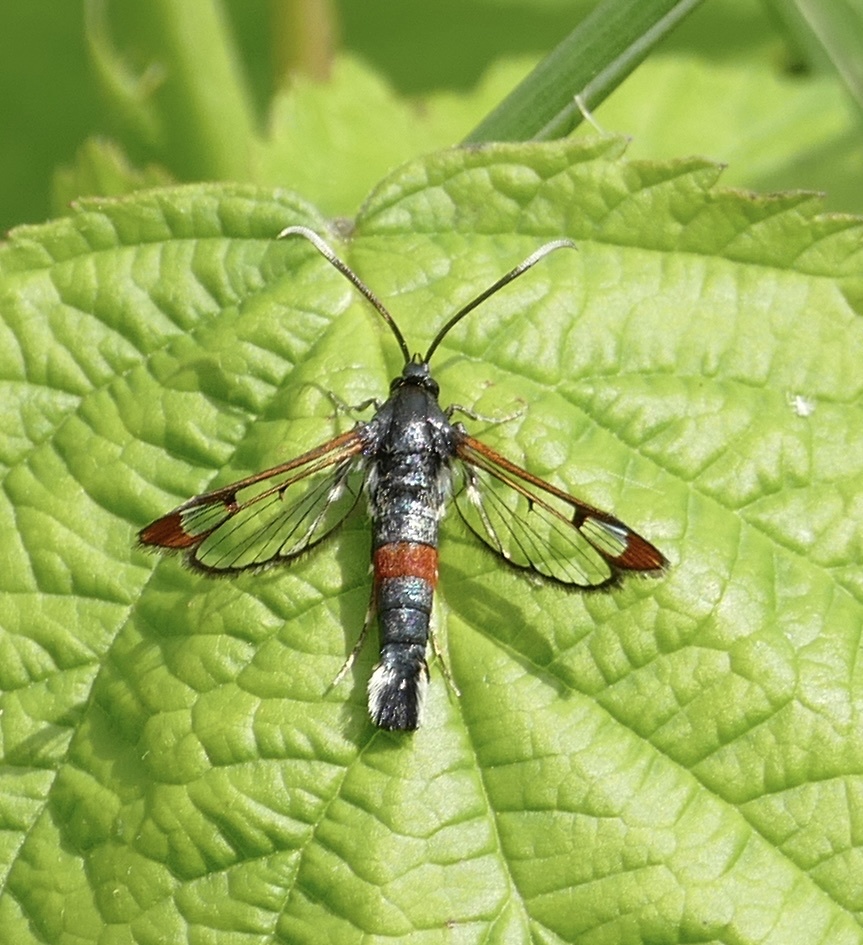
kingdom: Animalia
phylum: Arthropoda
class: Insecta
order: Lepidoptera
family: Sesiidae
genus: Synanthedon
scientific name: Synanthedon formicaeformis
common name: Red-tipped clearwing
